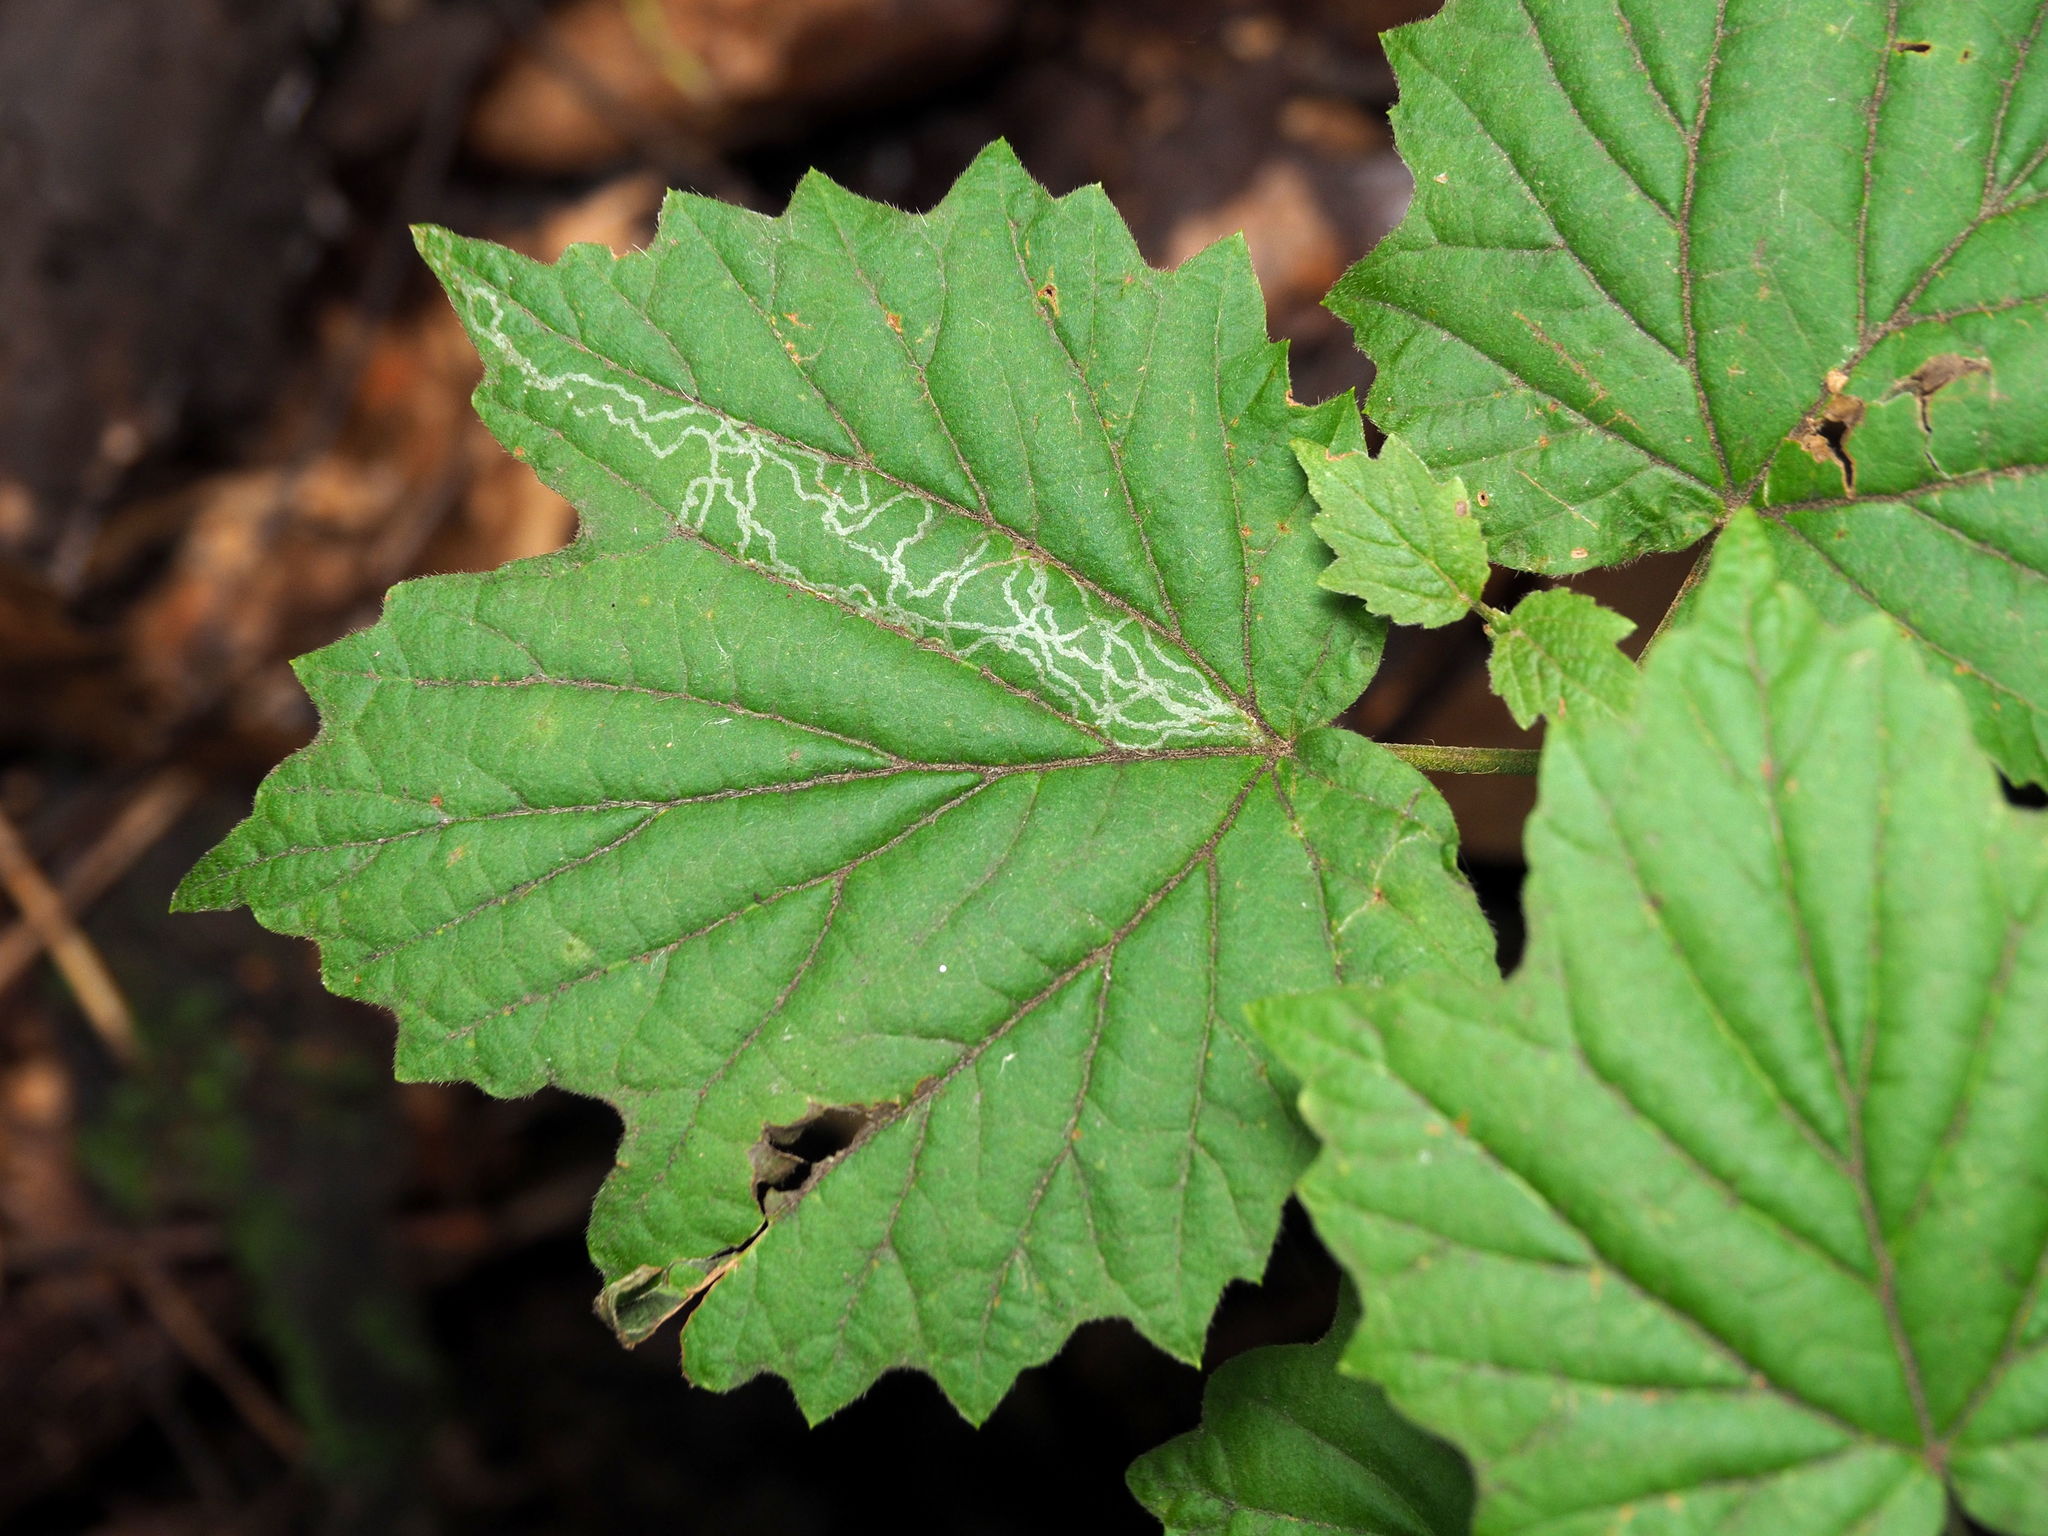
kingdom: Animalia
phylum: Arthropoda
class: Insecta
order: Lepidoptera
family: Gracillariidae
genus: Marmara
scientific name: Marmara viburnella
